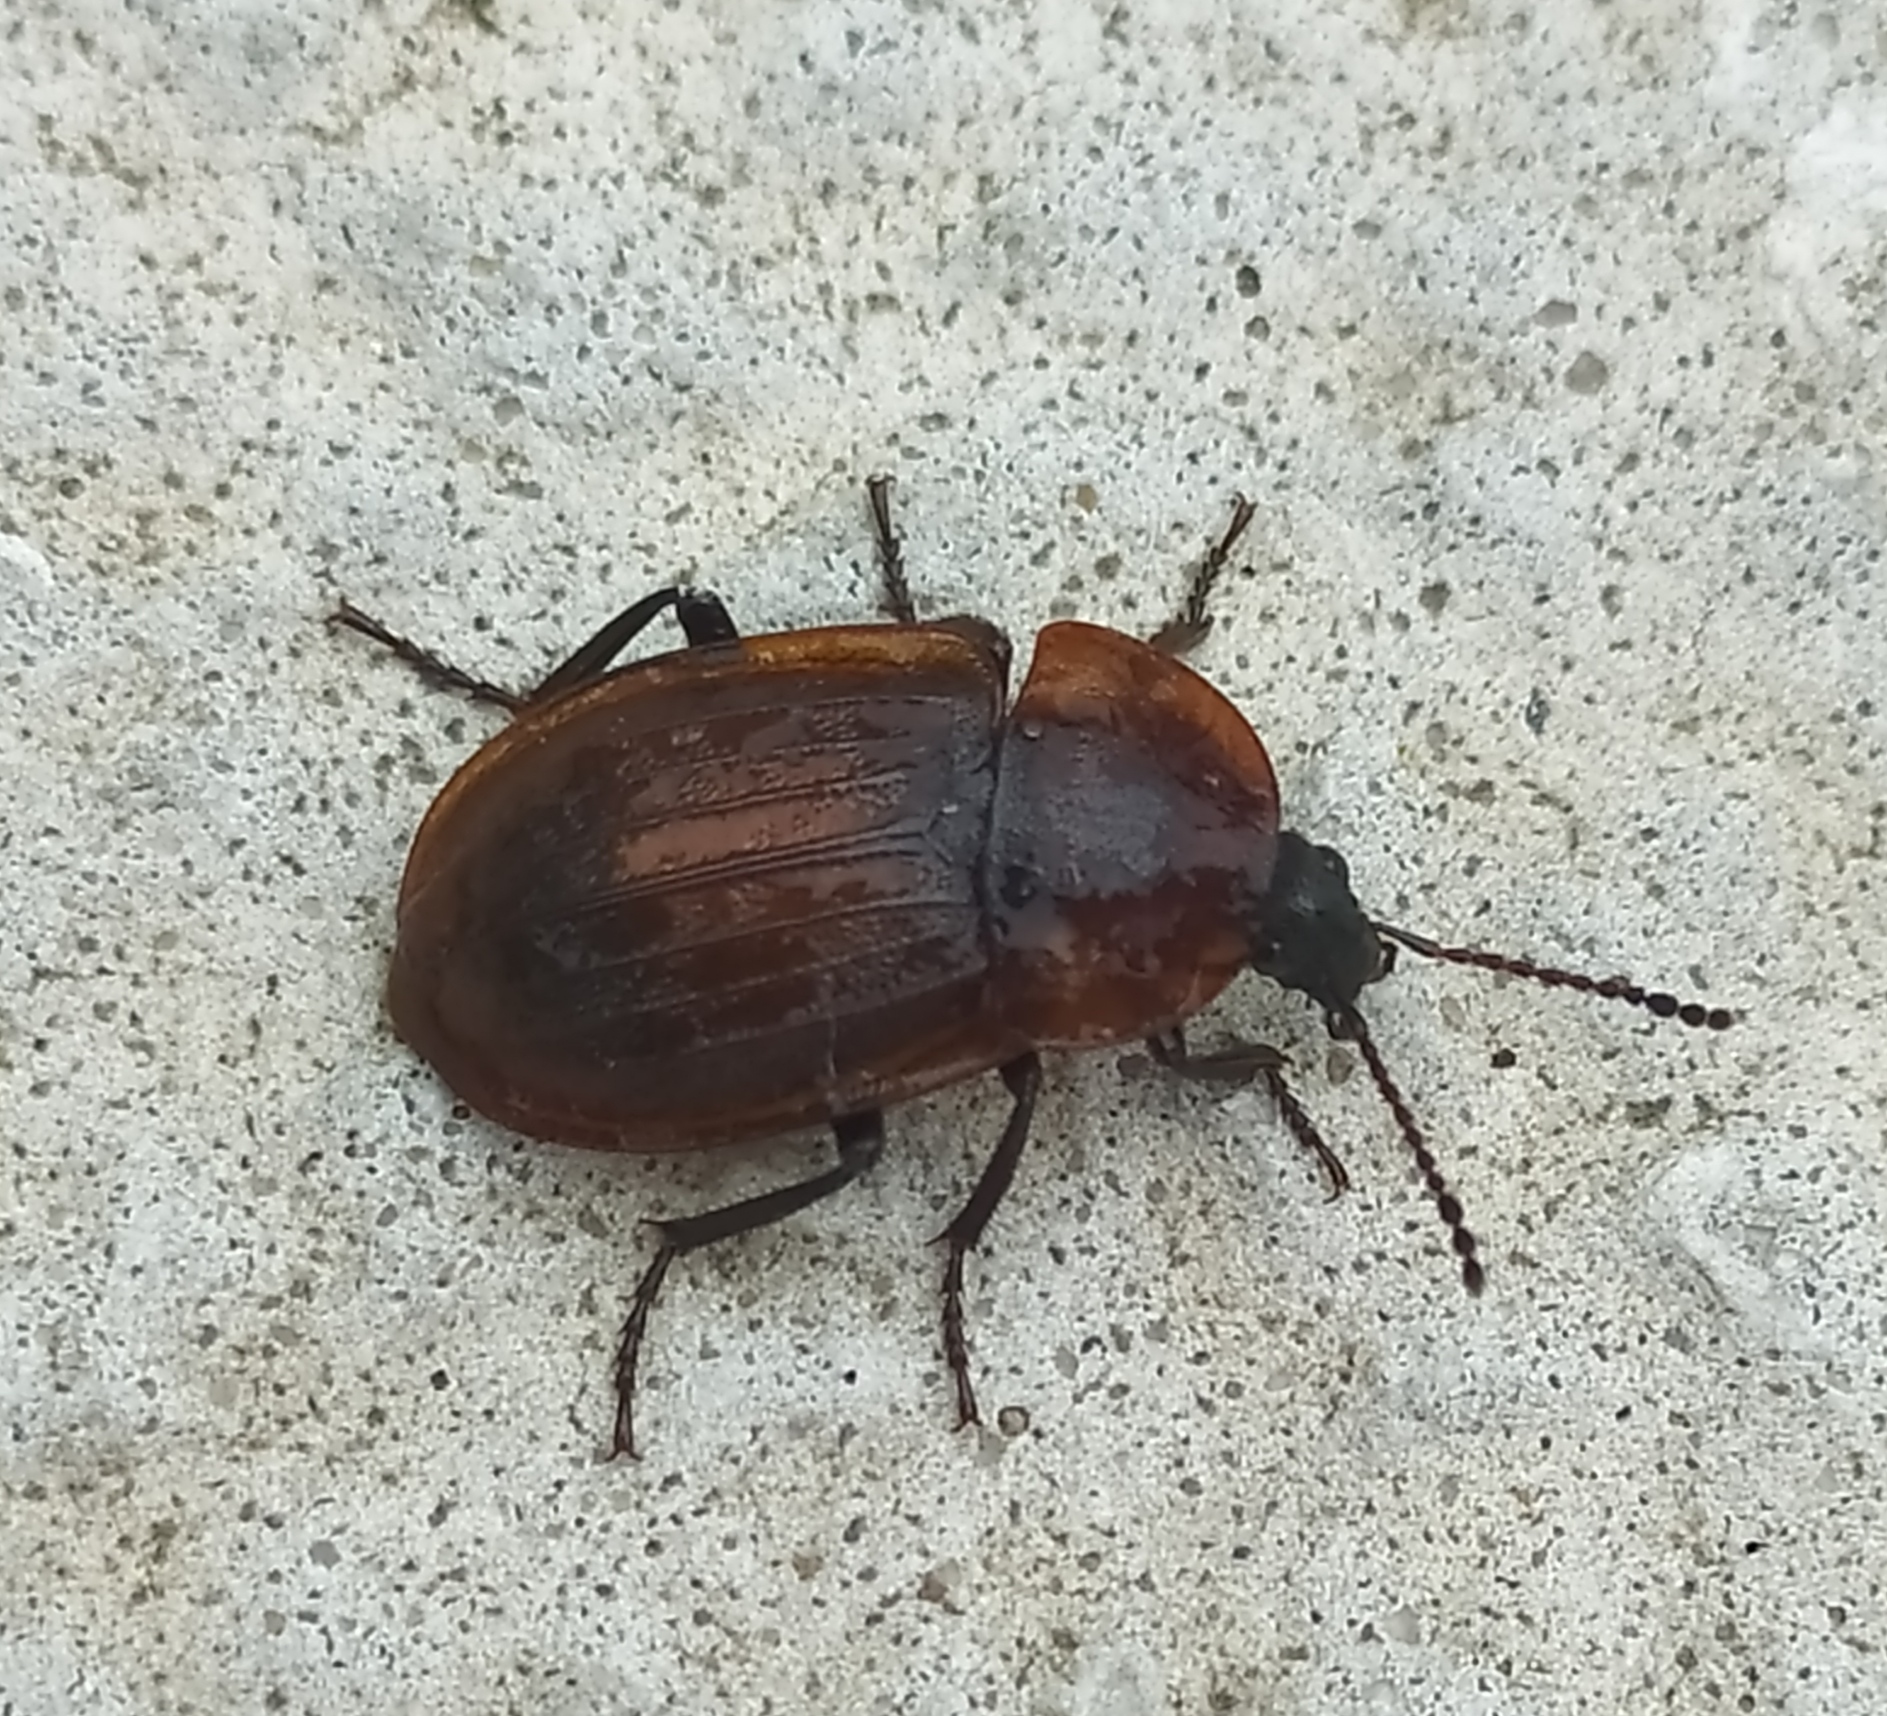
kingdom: Animalia
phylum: Arthropoda
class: Insecta
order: Coleoptera
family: Staphylinidae
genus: Silpha
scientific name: Silpha atrata
